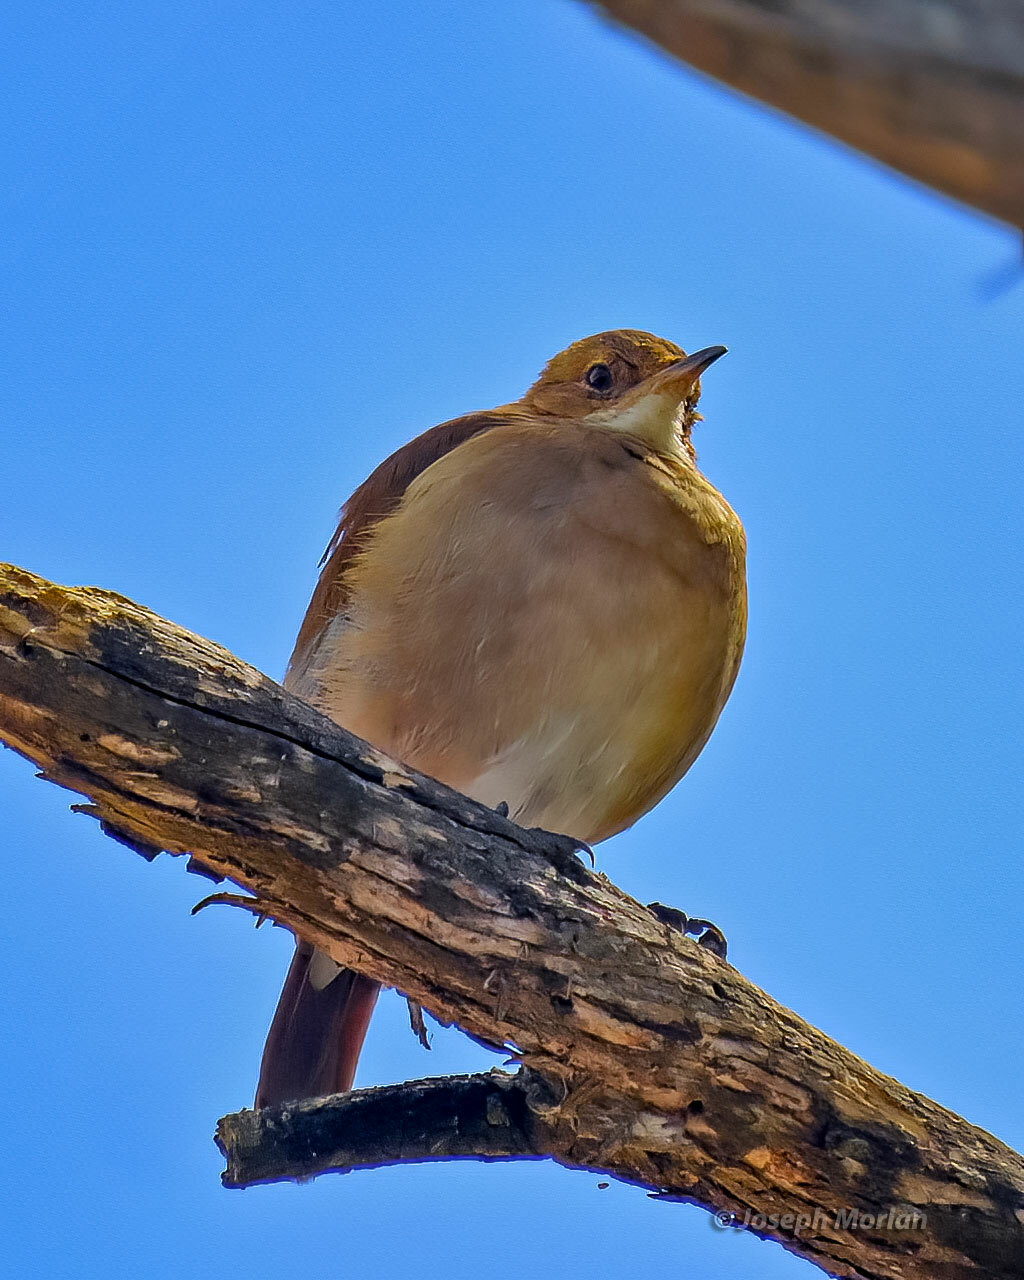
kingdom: Animalia
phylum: Chordata
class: Aves
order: Passeriformes
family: Furnariidae
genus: Furnarius
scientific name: Furnarius rufus
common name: Rufous hornero
